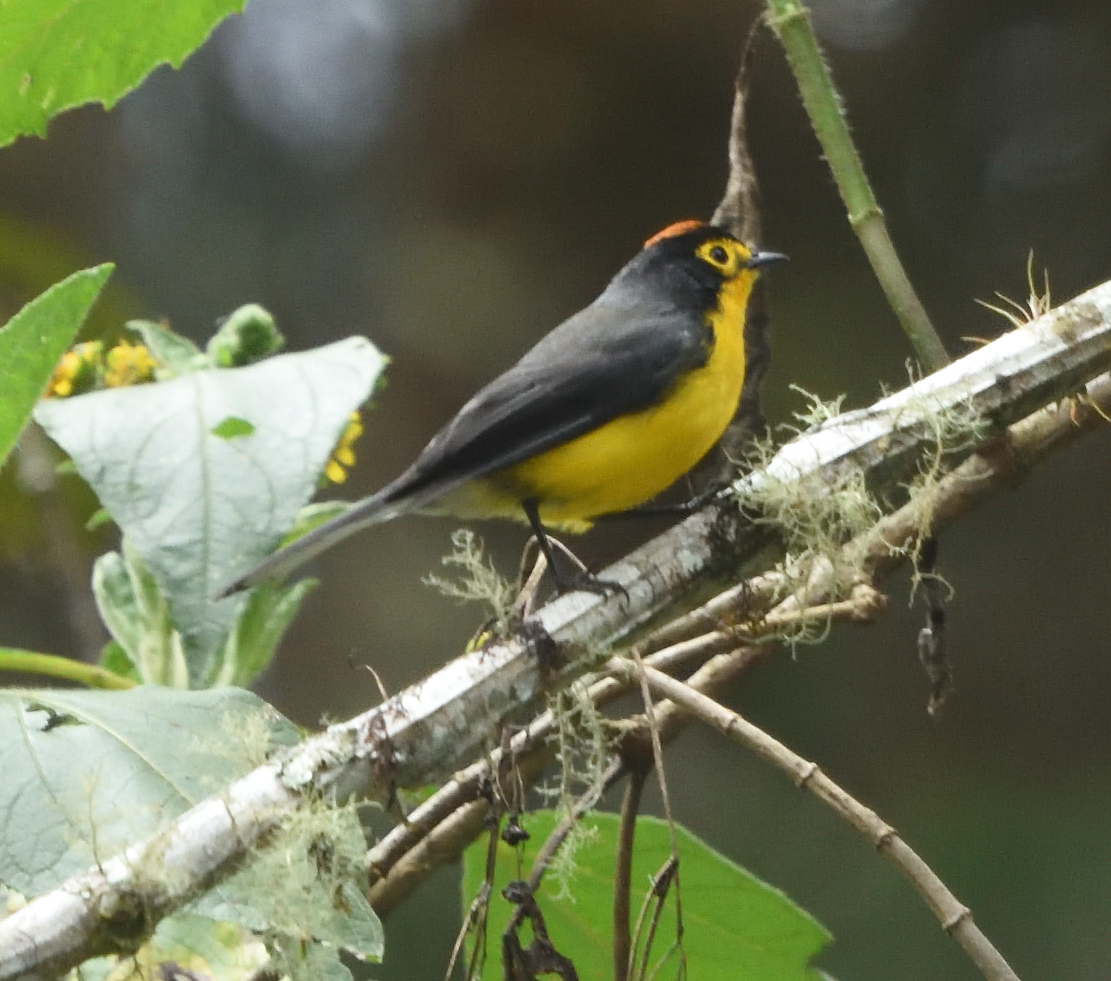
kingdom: Animalia
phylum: Chordata
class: Aves
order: Passeriformes
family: Parulidae
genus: Myioborus
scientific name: Myioborus melanocephalus
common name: Spectacled whitestart
